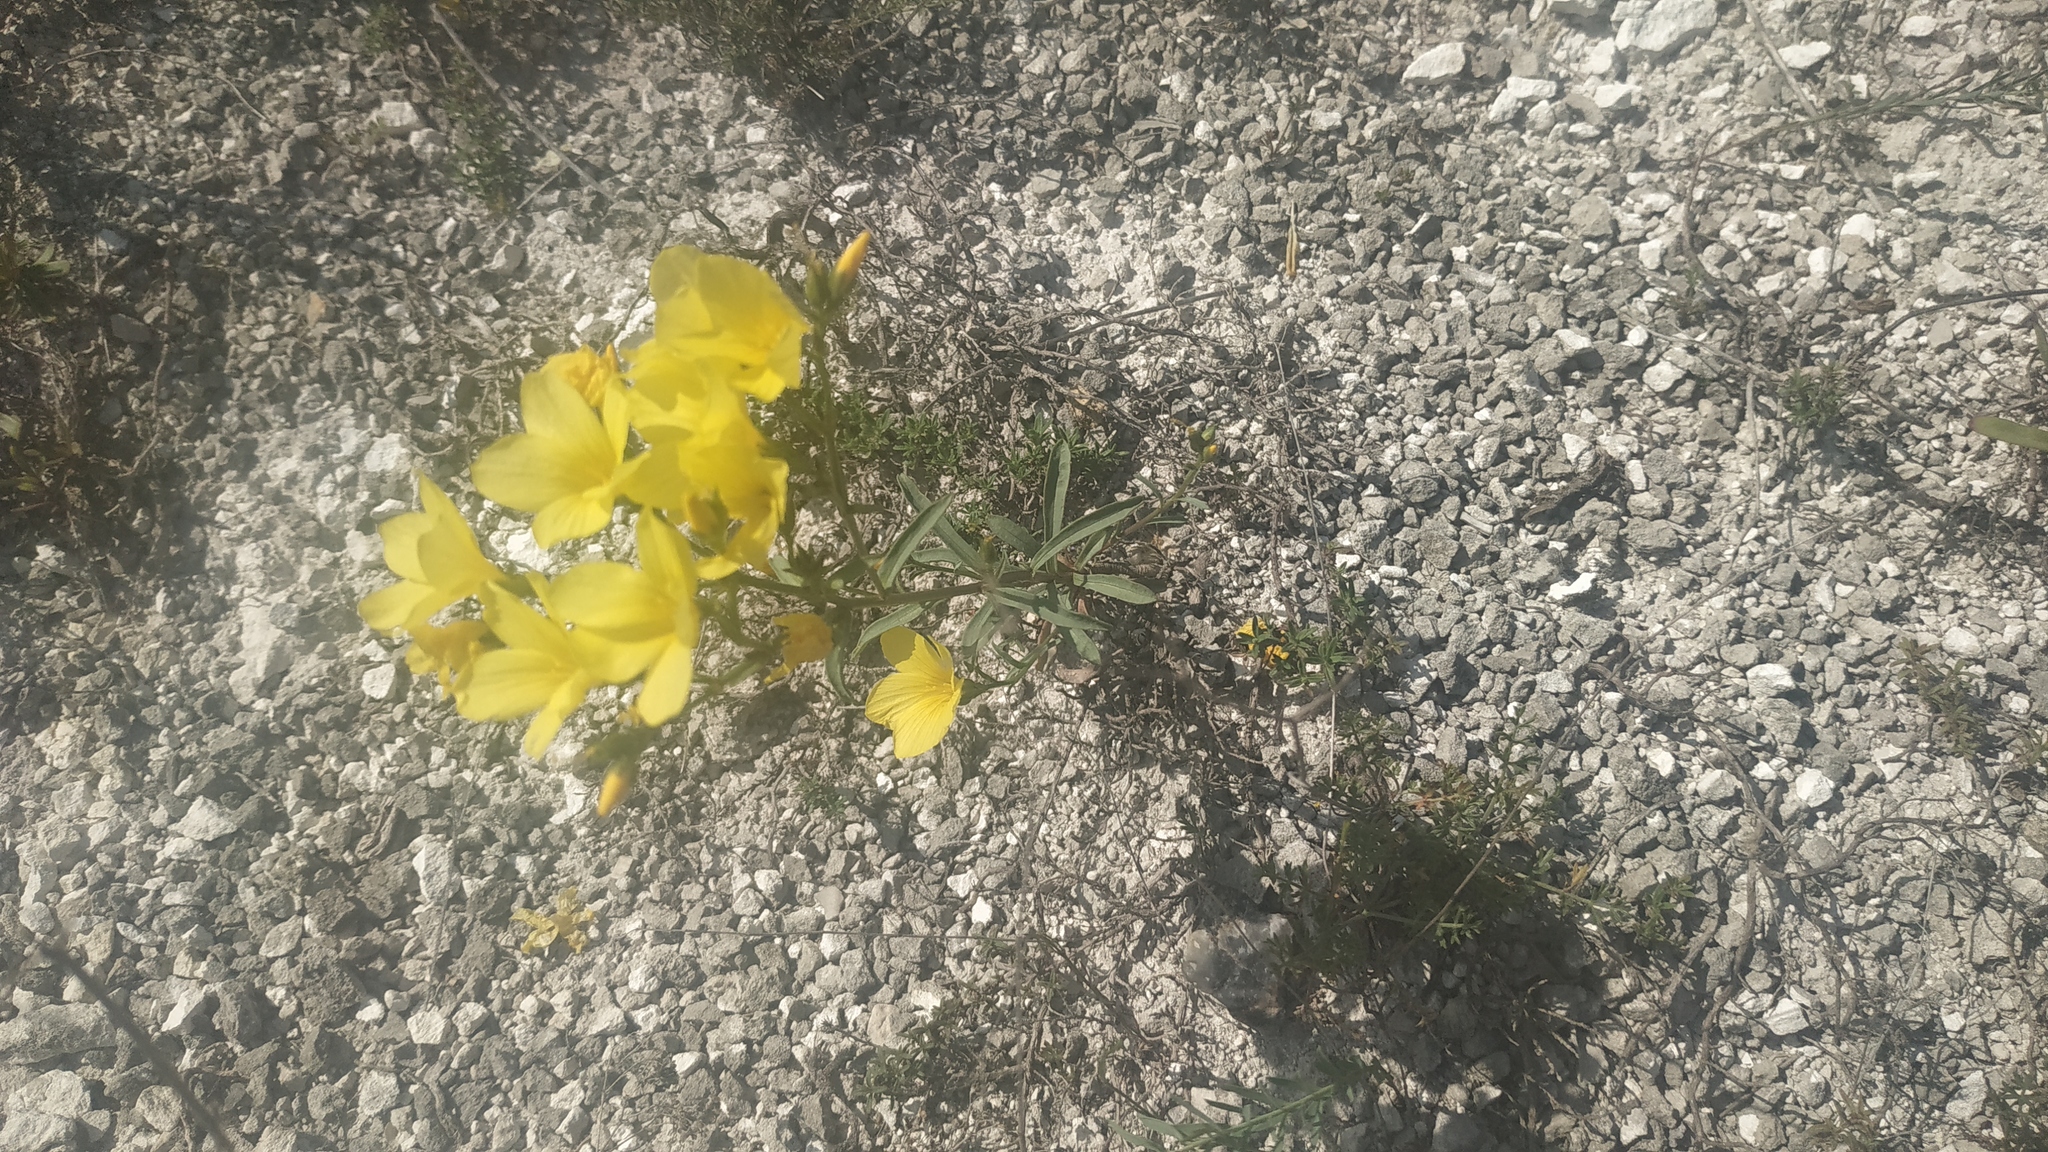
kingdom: Plantae
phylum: Tracheophyta
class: Magnoliopsida
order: Malpighiales
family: Linaceae
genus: Linum
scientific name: Linum ucranicum
